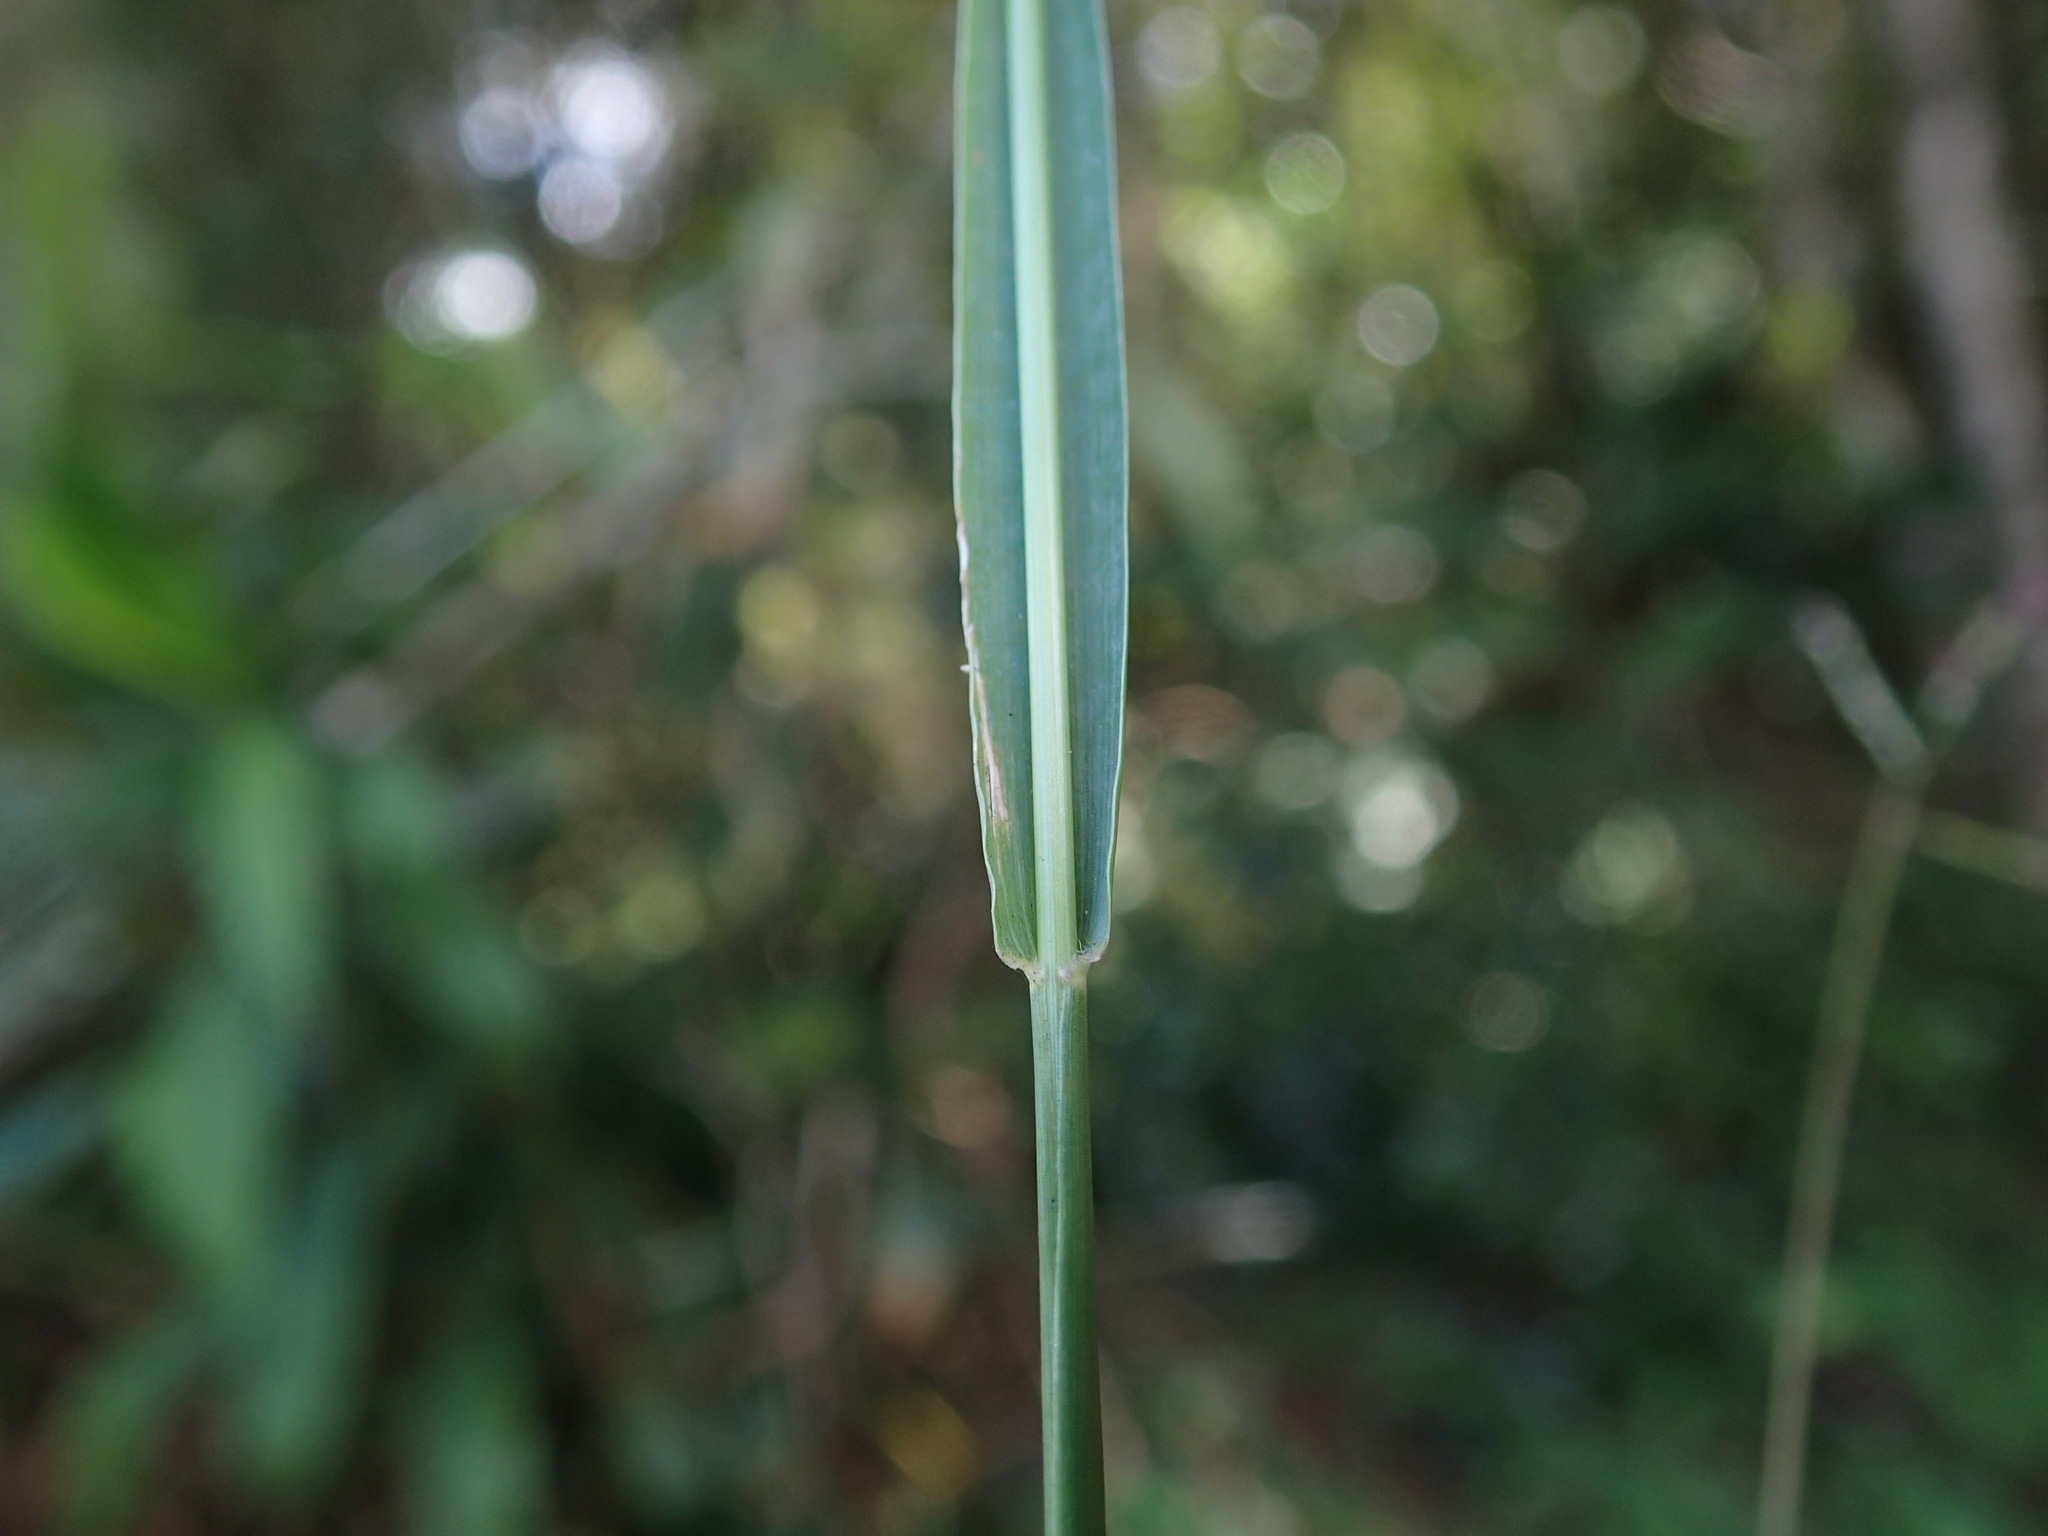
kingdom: Plantae
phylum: Tracheophyta
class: Liliopsida
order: Poales
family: Poaceae
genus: Setaria
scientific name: Setaria sphacelata
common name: African bristlegrass
